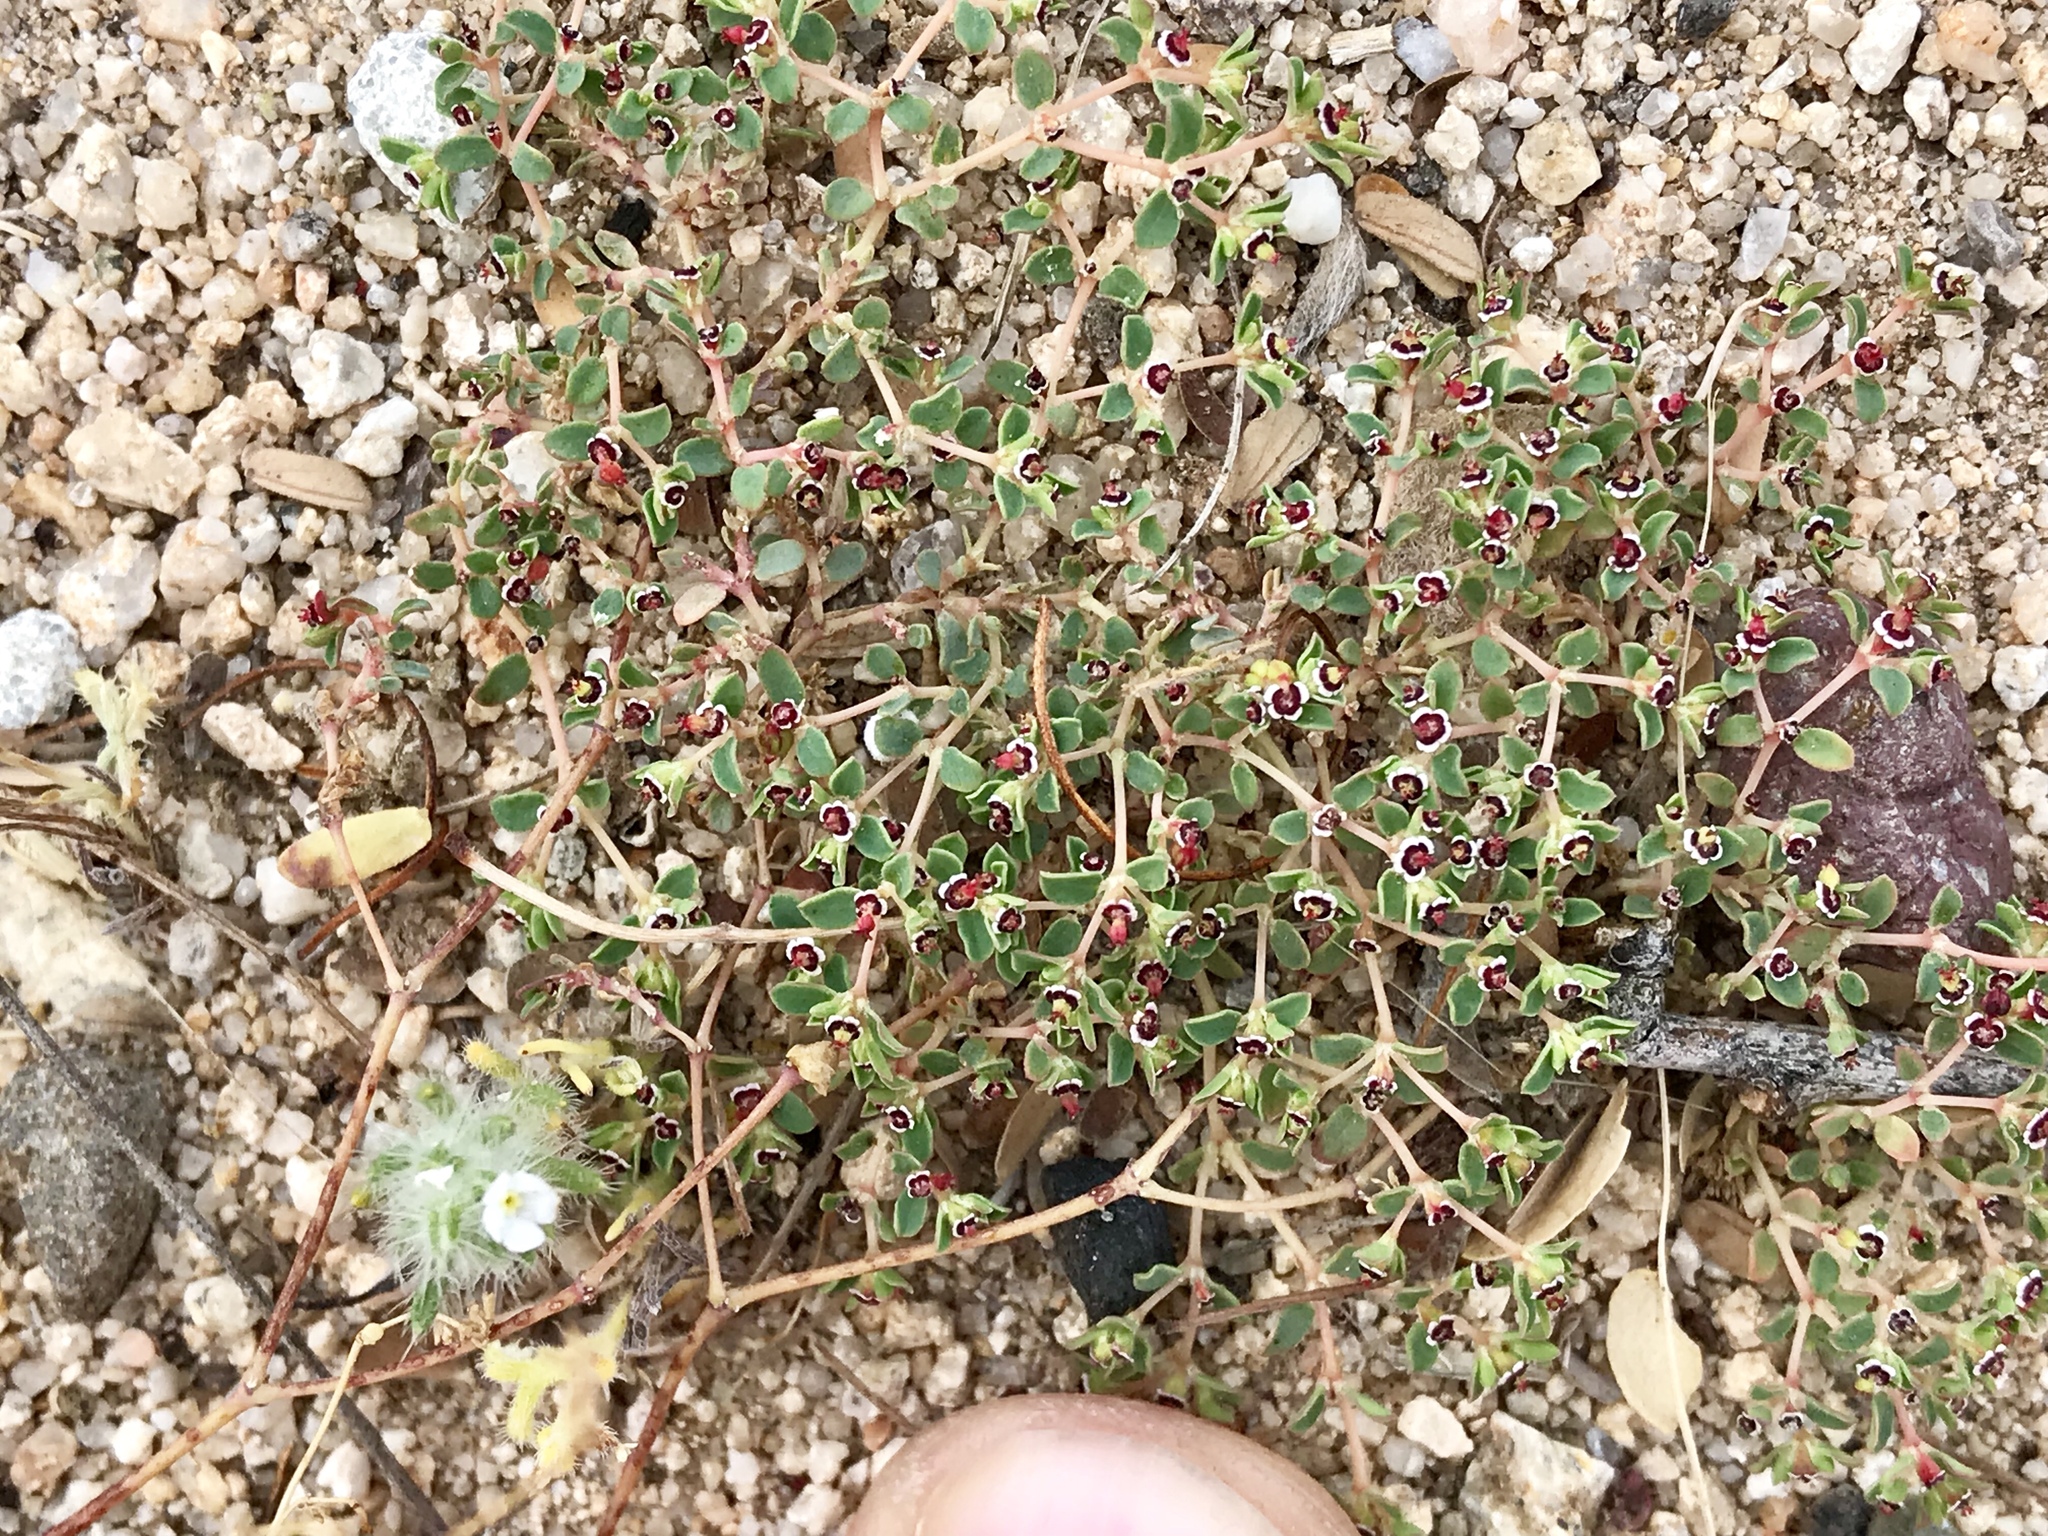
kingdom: Plantae
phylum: Tracheophyta
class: Magnoliopsida
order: Malpighiales
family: Euphorbiaceae
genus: Euphorbia
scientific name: Euphorbia polycarpa
